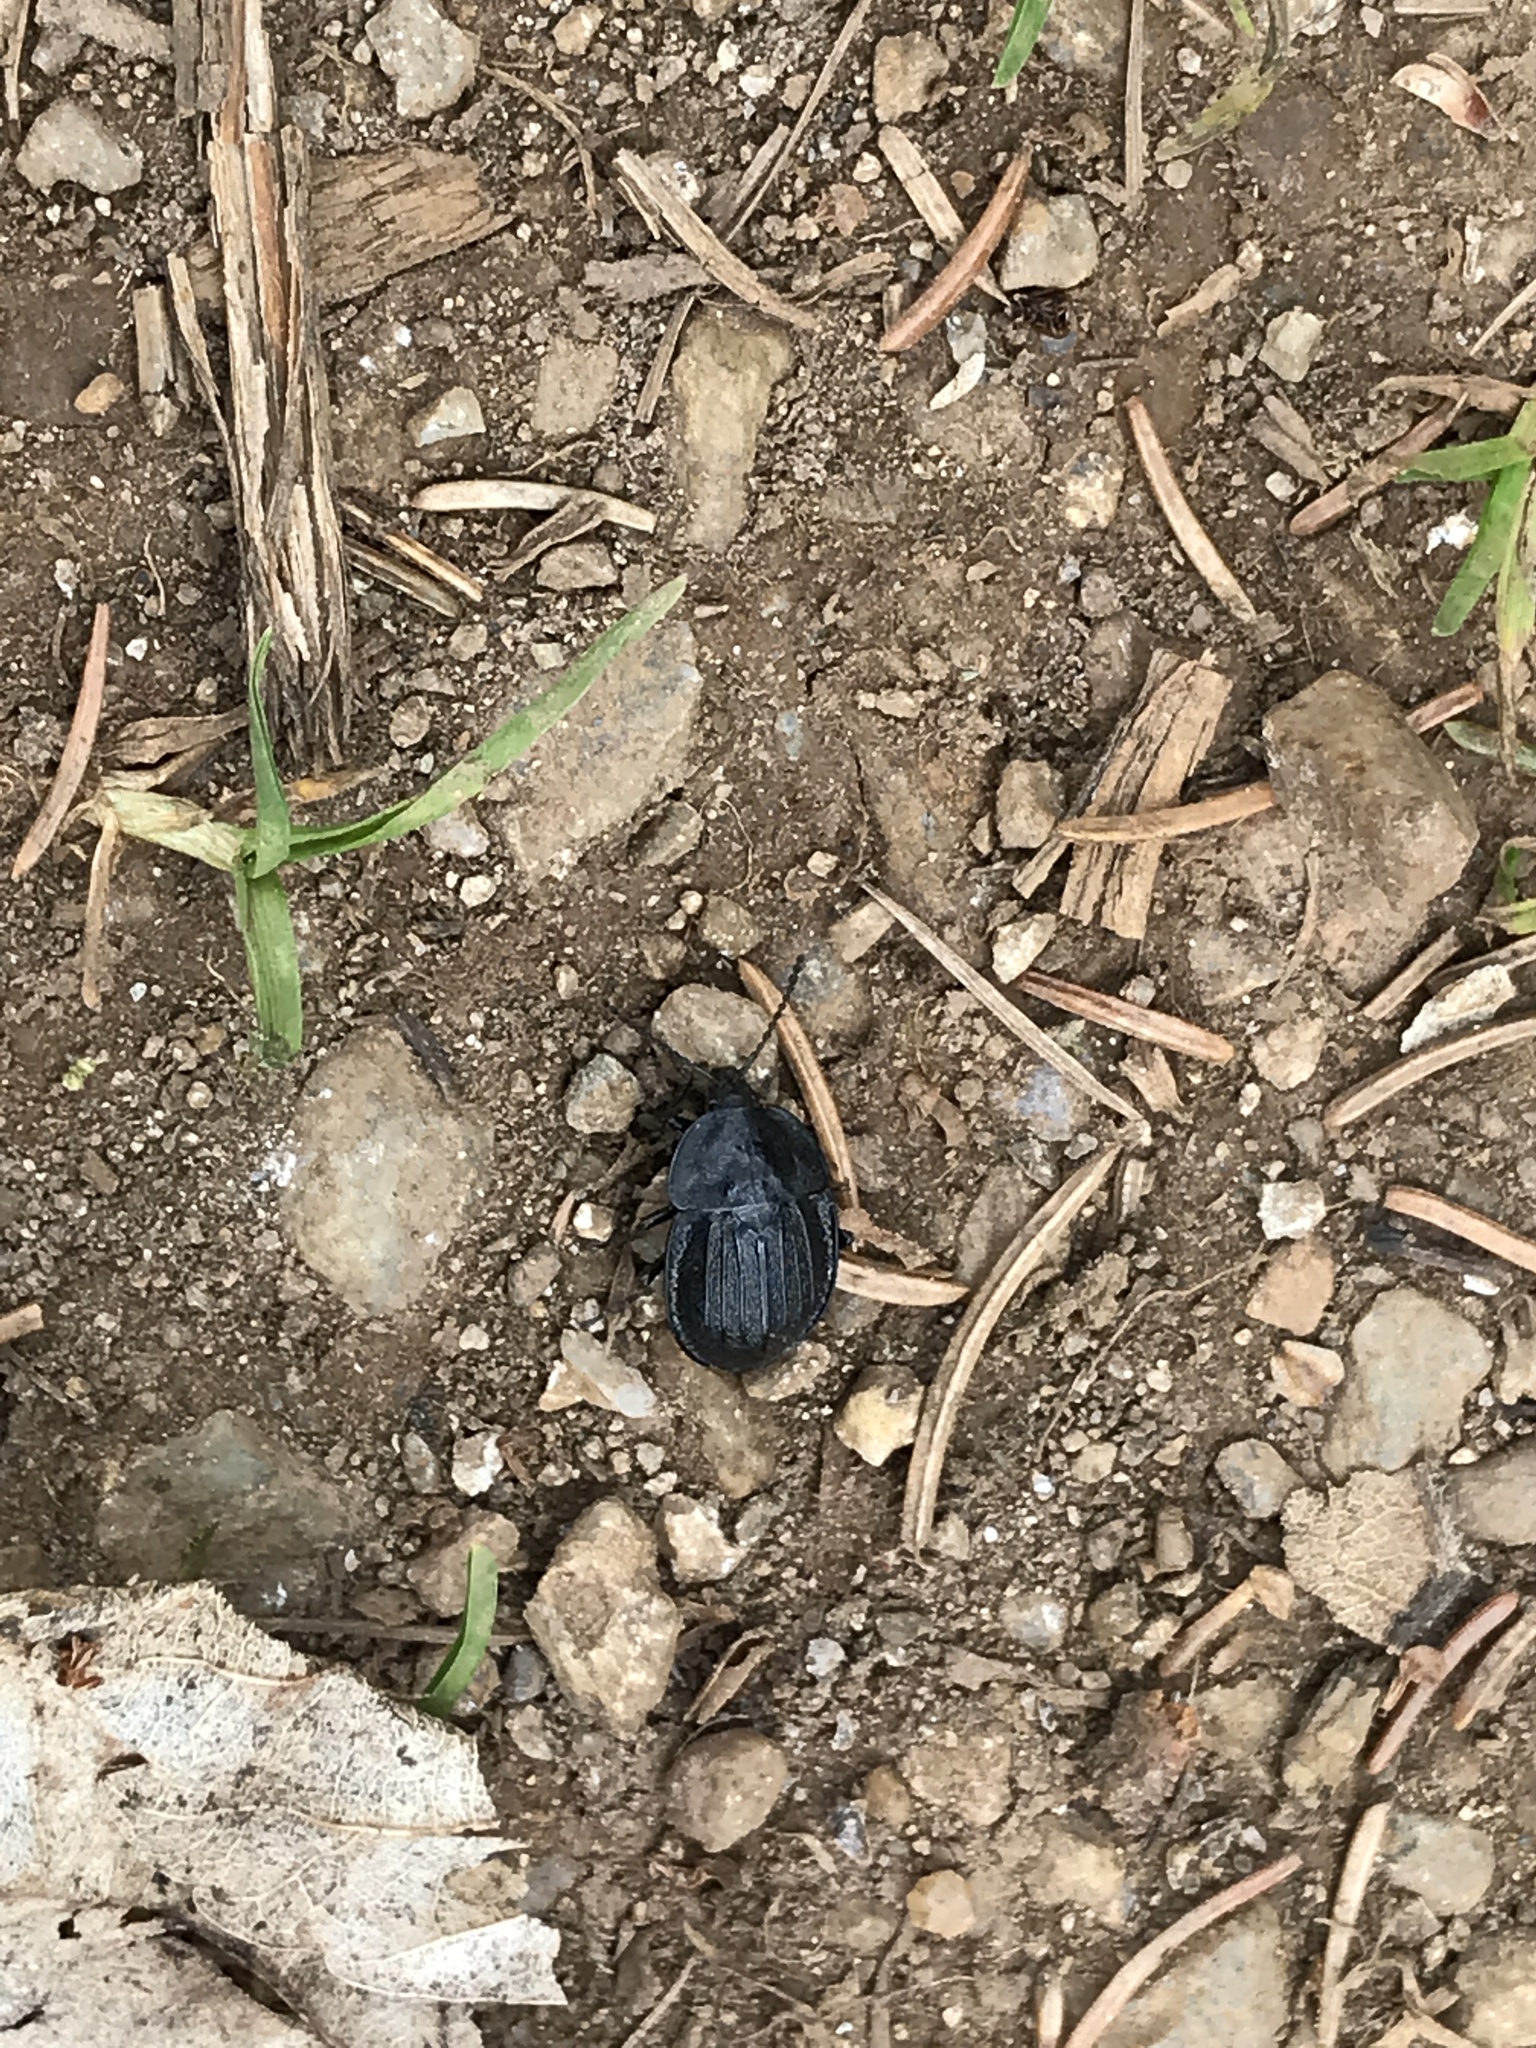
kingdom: Animalia
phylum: Arthropoda
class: Insecta
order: Coleoptera
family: Staphylinidae
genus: Silpha
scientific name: Silpha atrata
